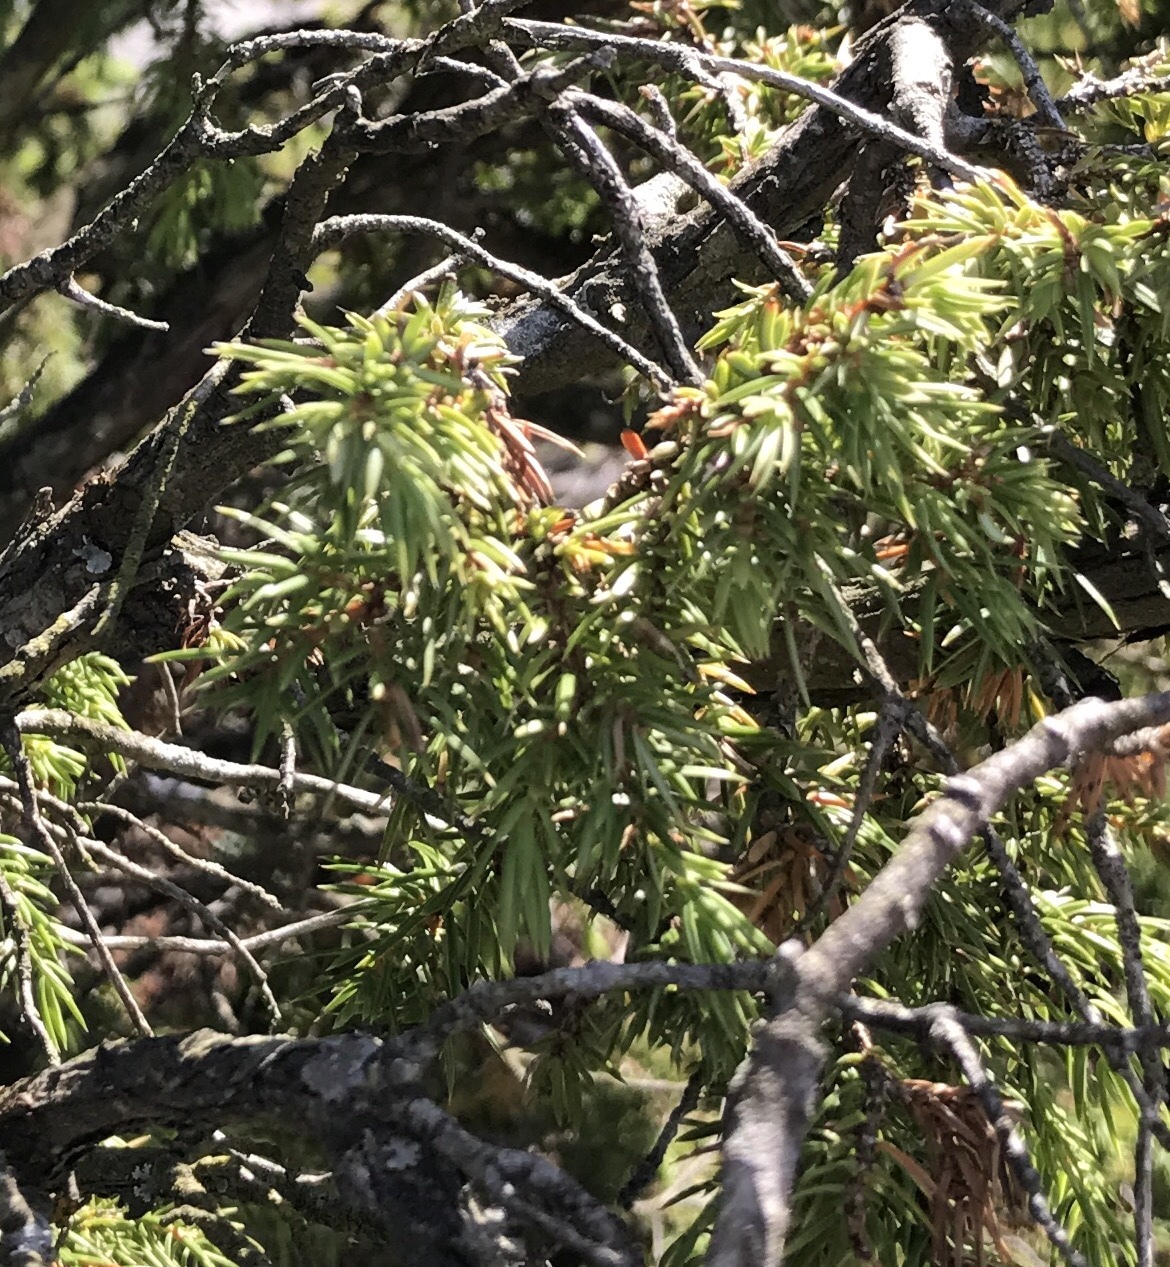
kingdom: Plantae
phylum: Tracheophyta
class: Pinopsida
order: Pinales
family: Cupressaceae
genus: Juniperus
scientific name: Juniperus communis
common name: Common juniper
